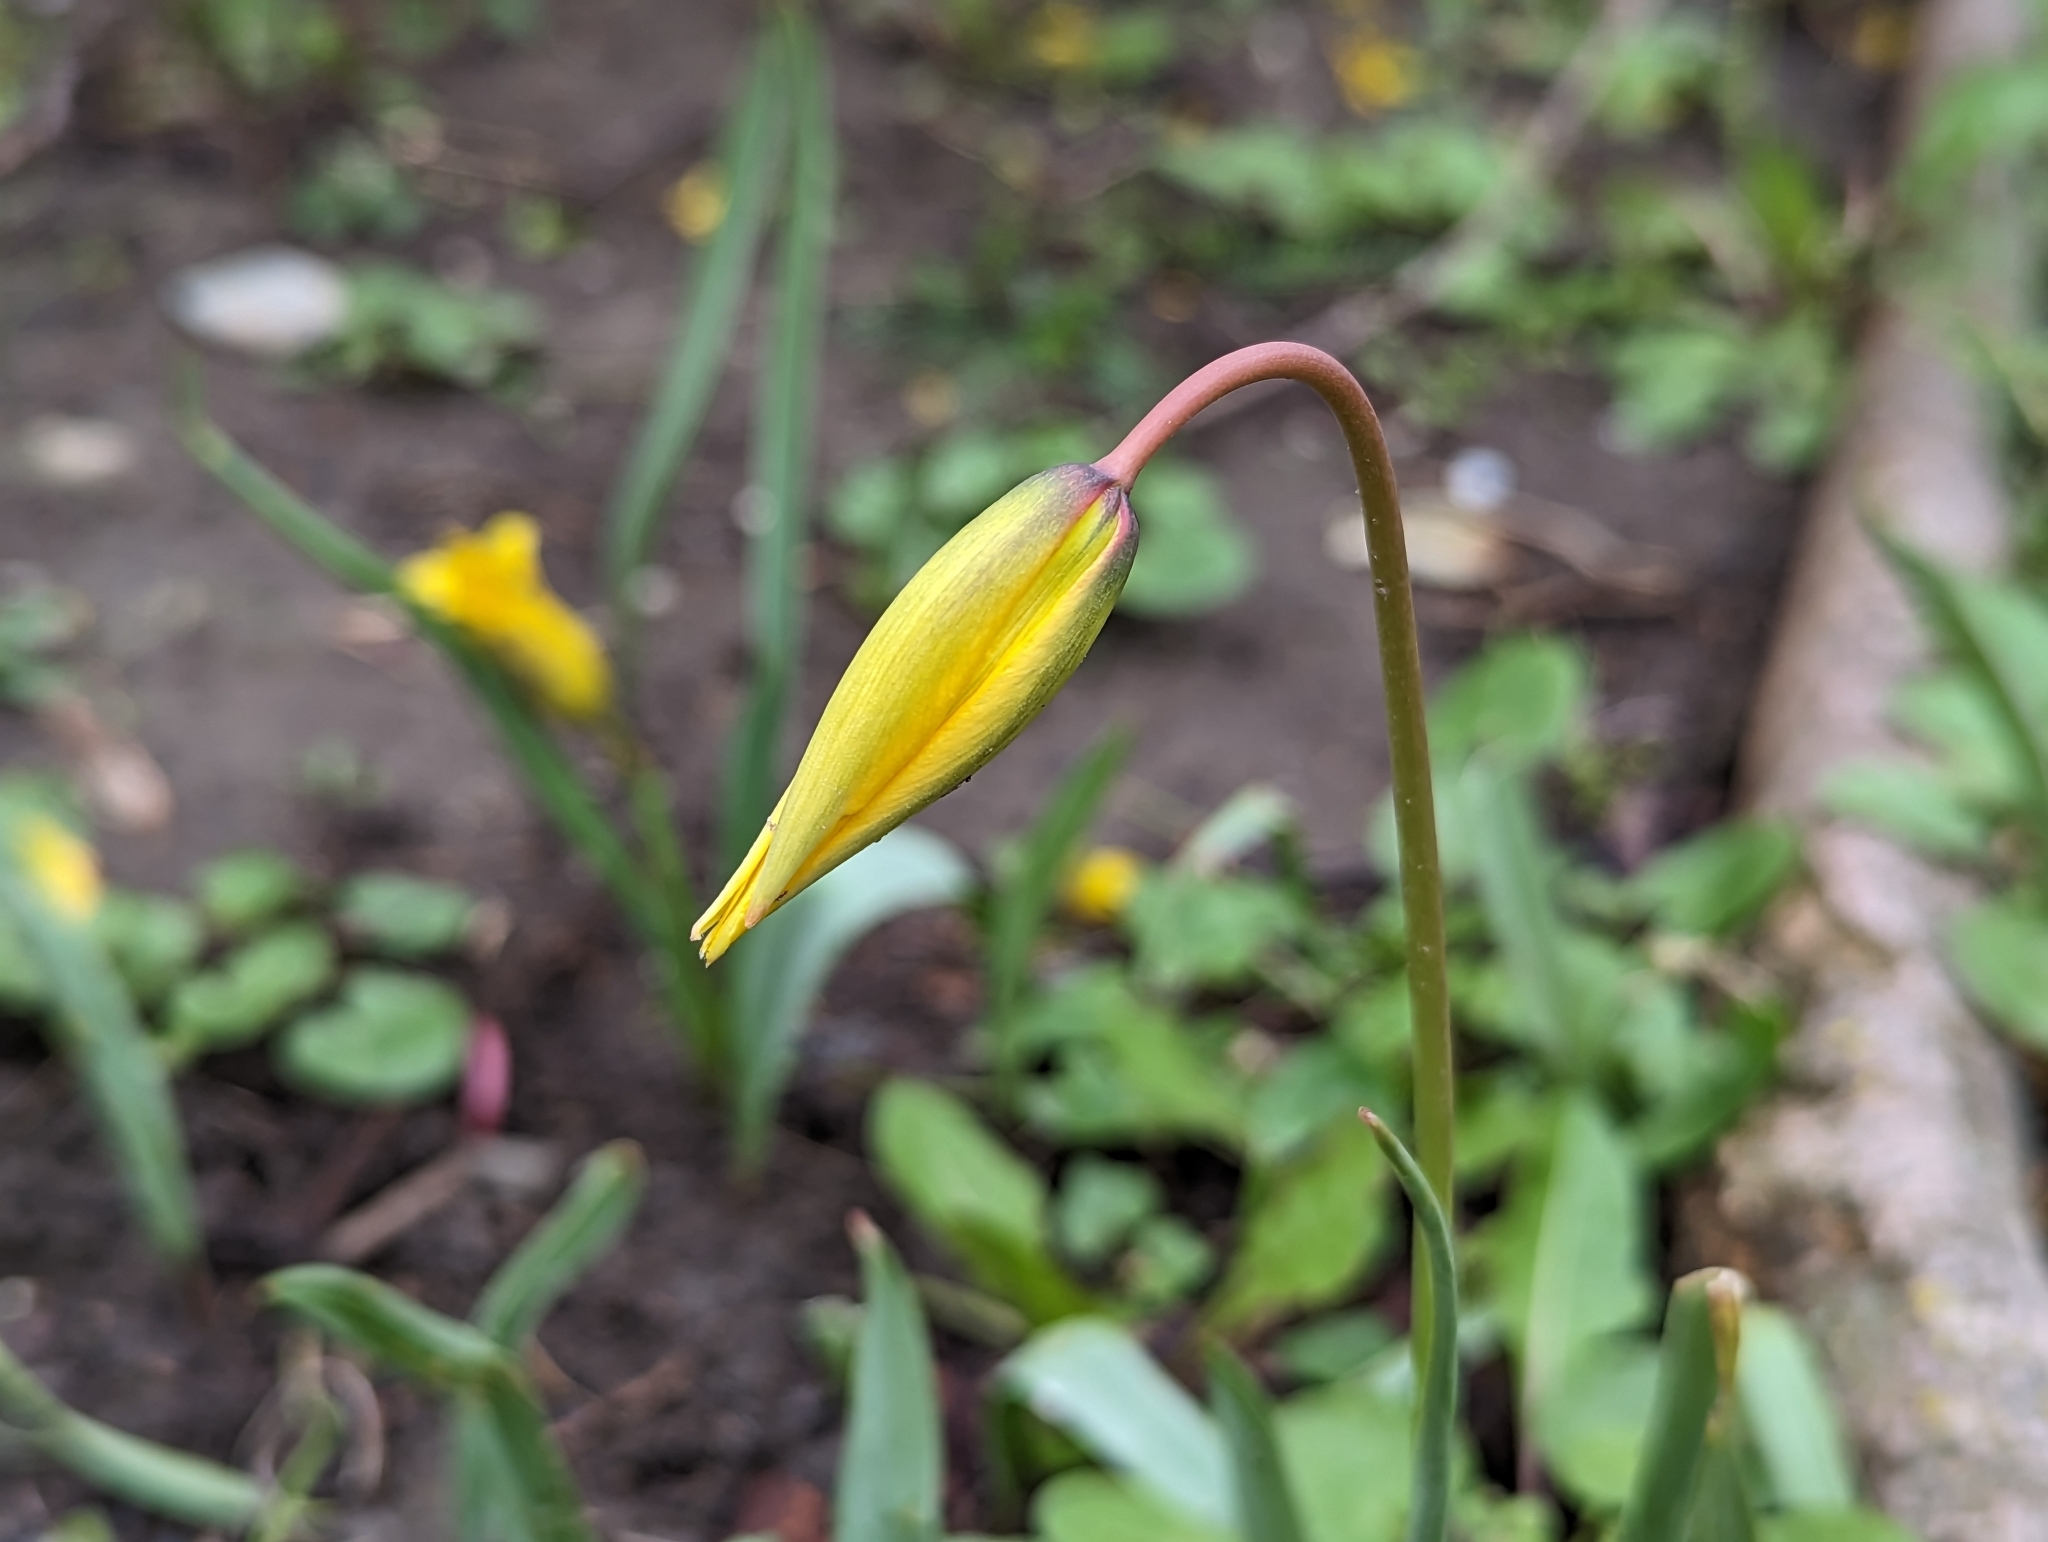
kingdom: Plantae
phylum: Tracheophyta
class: Liliopsida
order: Liliales
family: Liliaceae
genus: Tulipa
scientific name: Tulipa sylvestris
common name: Wild tulip
